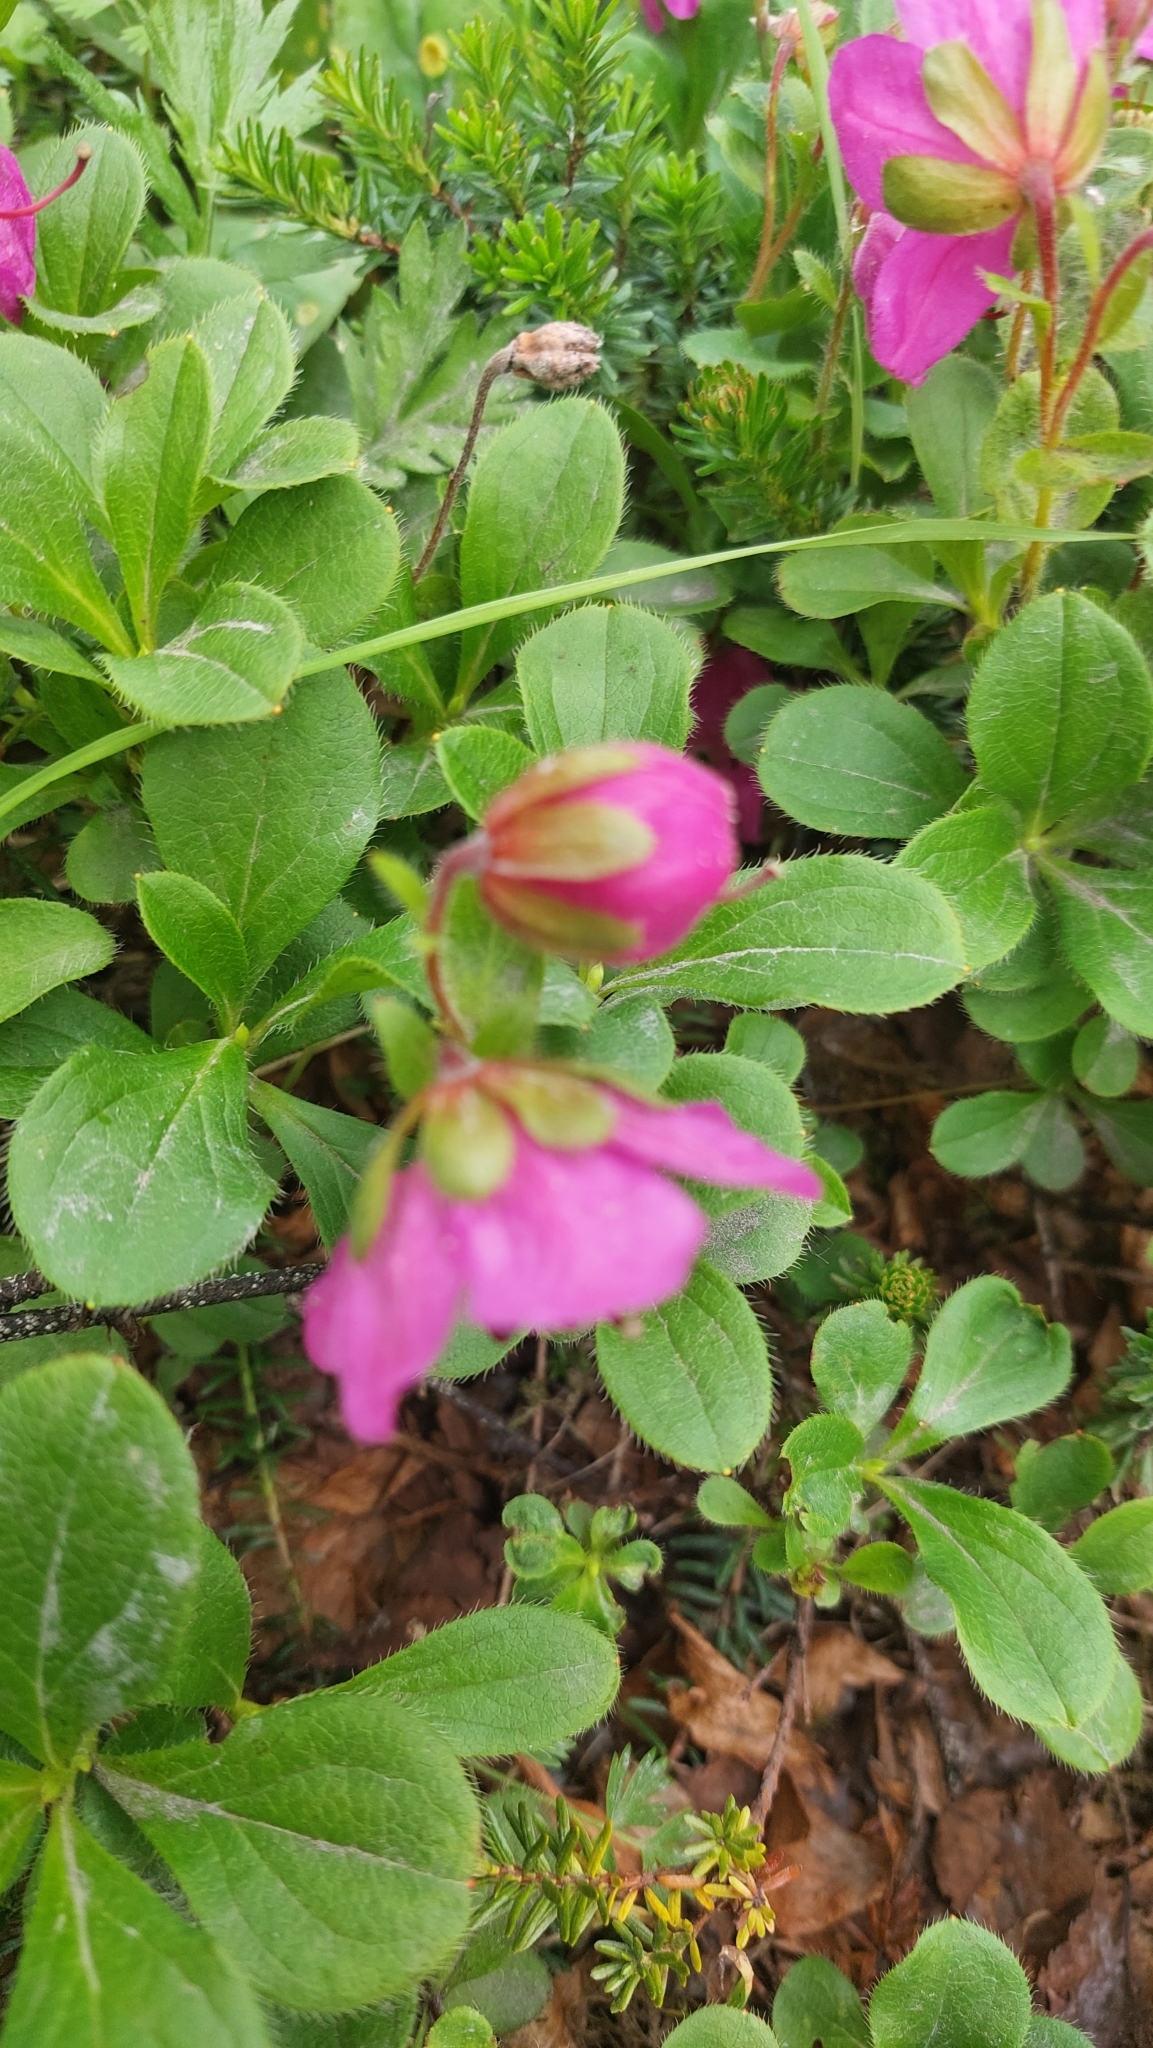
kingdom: Plantae
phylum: Tracheophyta
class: Magnoliopsida
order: Ericales
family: Ericaceae
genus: Rhododendron
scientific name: Rhododendron camtschaticum
